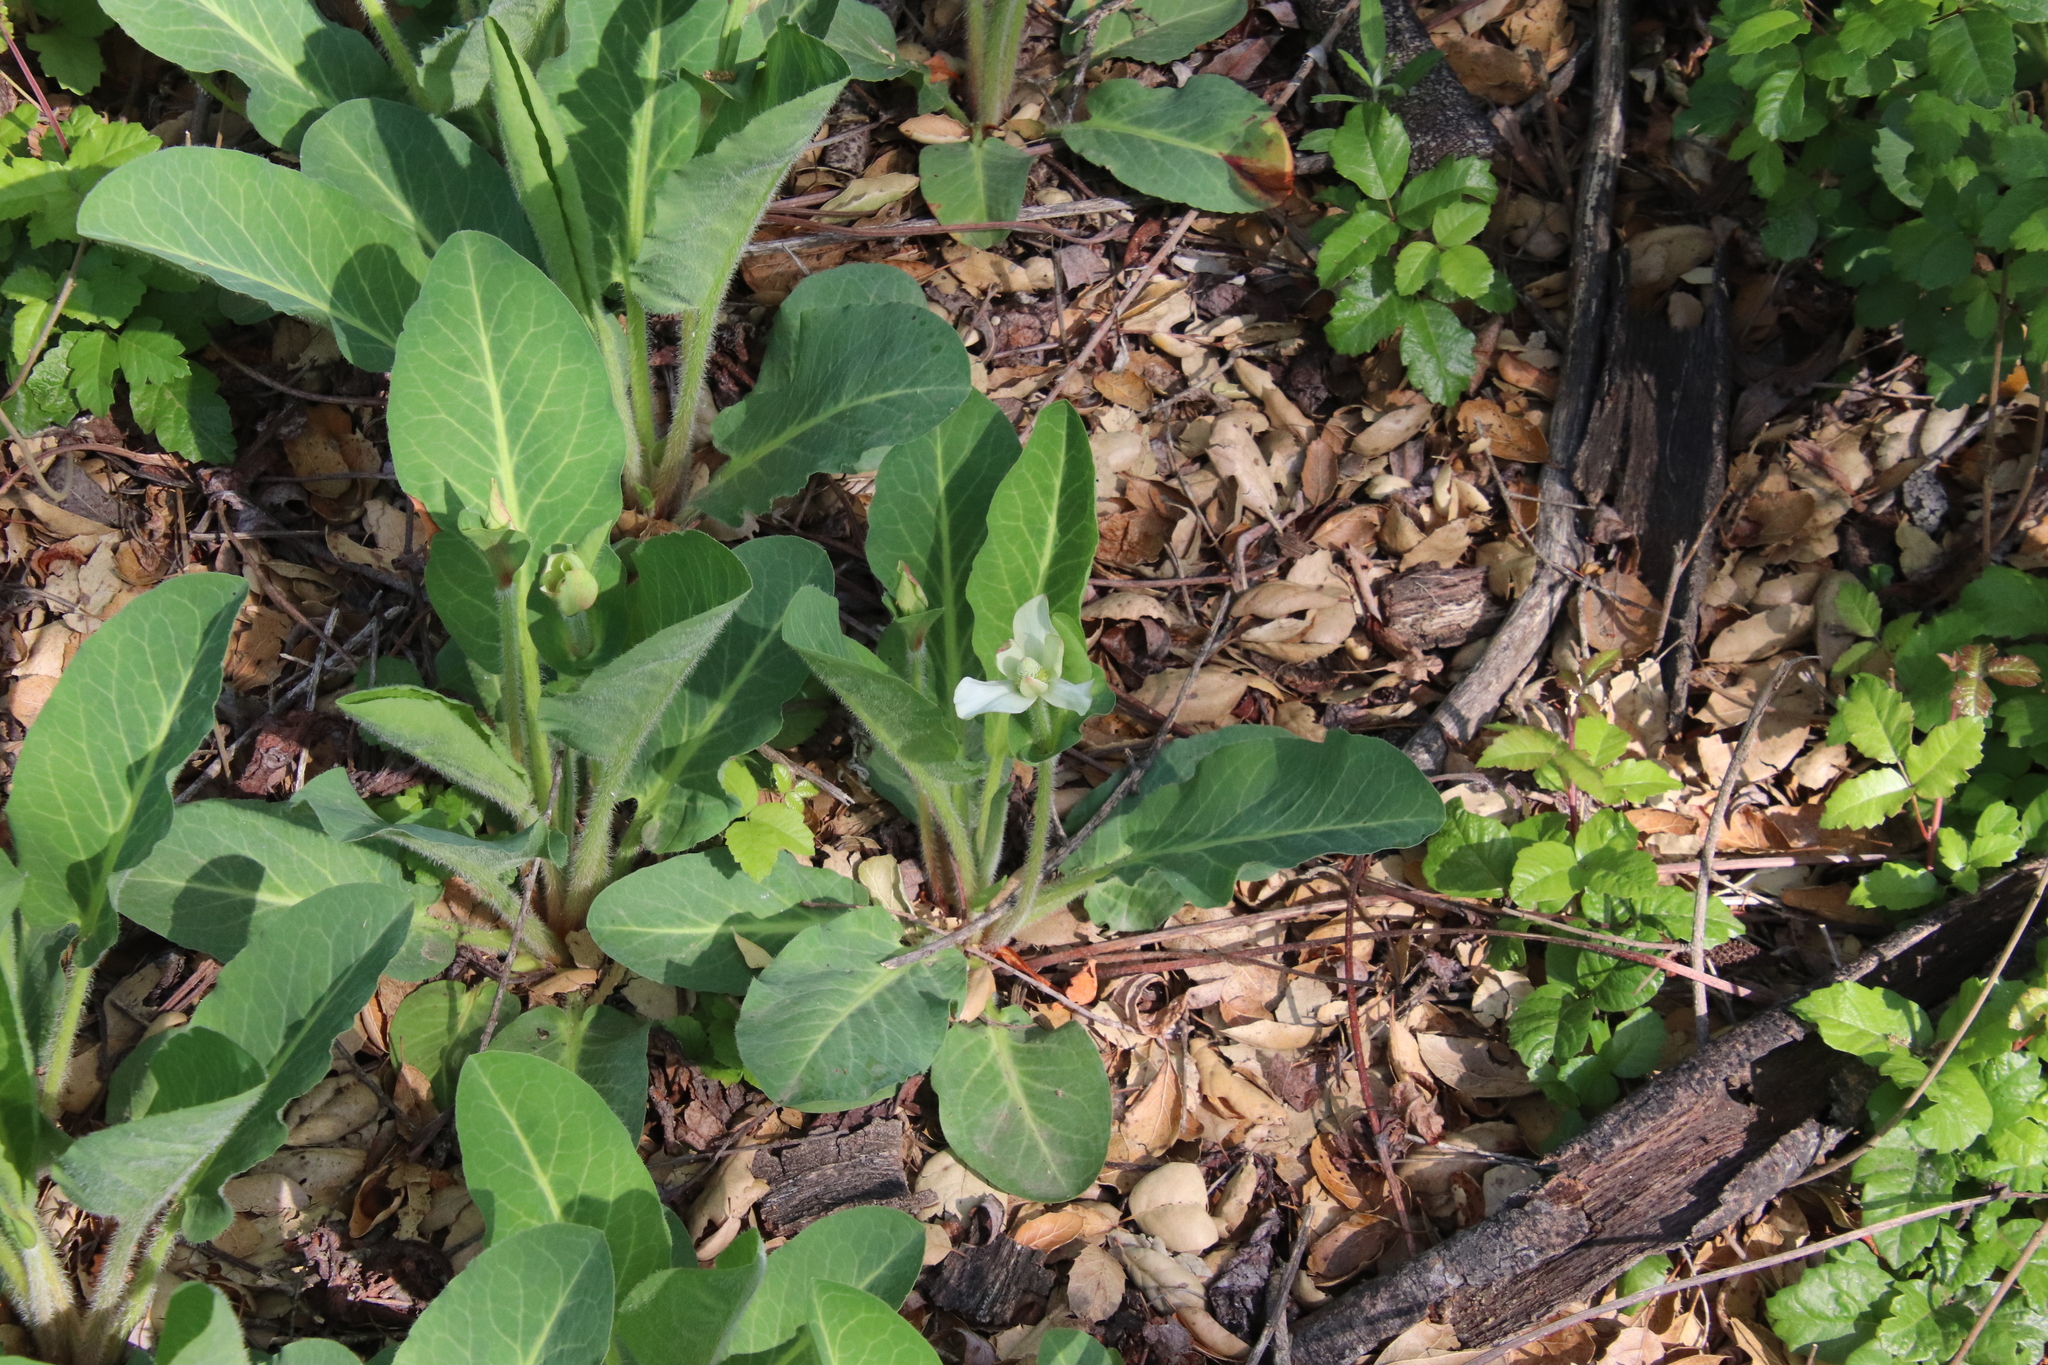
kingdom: Plantae
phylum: Tracheophyta
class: Magnoliopsida
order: Piperales
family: Saururaceae
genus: Anemopsis
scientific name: Anemopsis californica
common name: Apache-beads
